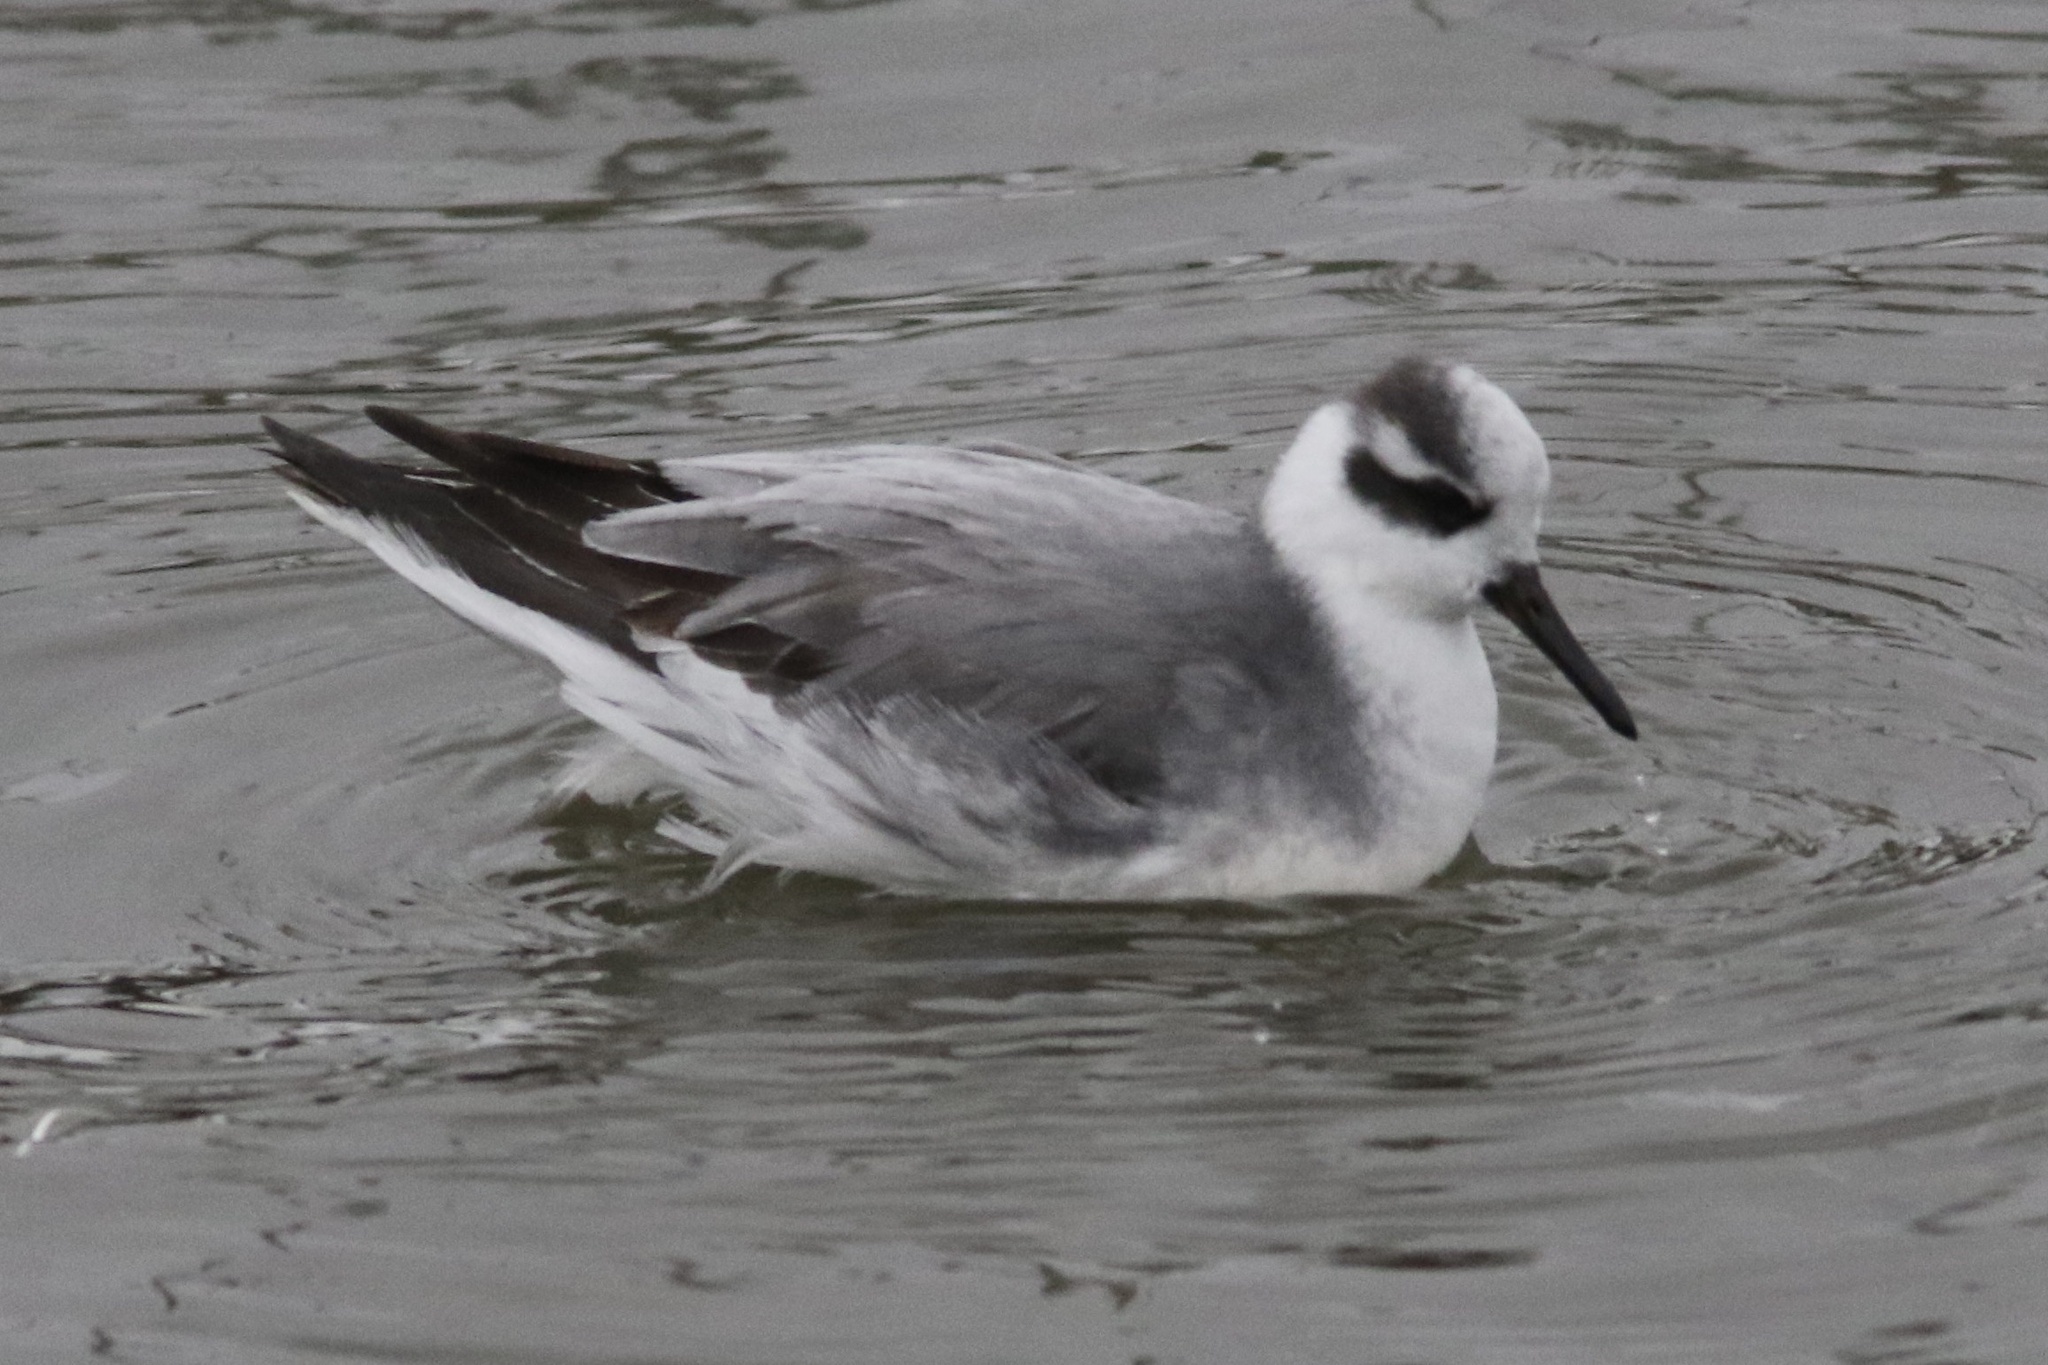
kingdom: Animalia
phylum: Chordata
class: Aves
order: Charadriiformes
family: Scolopacidae
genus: Phalaropus
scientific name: Phalaropus fulicarius
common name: Red phalarope
